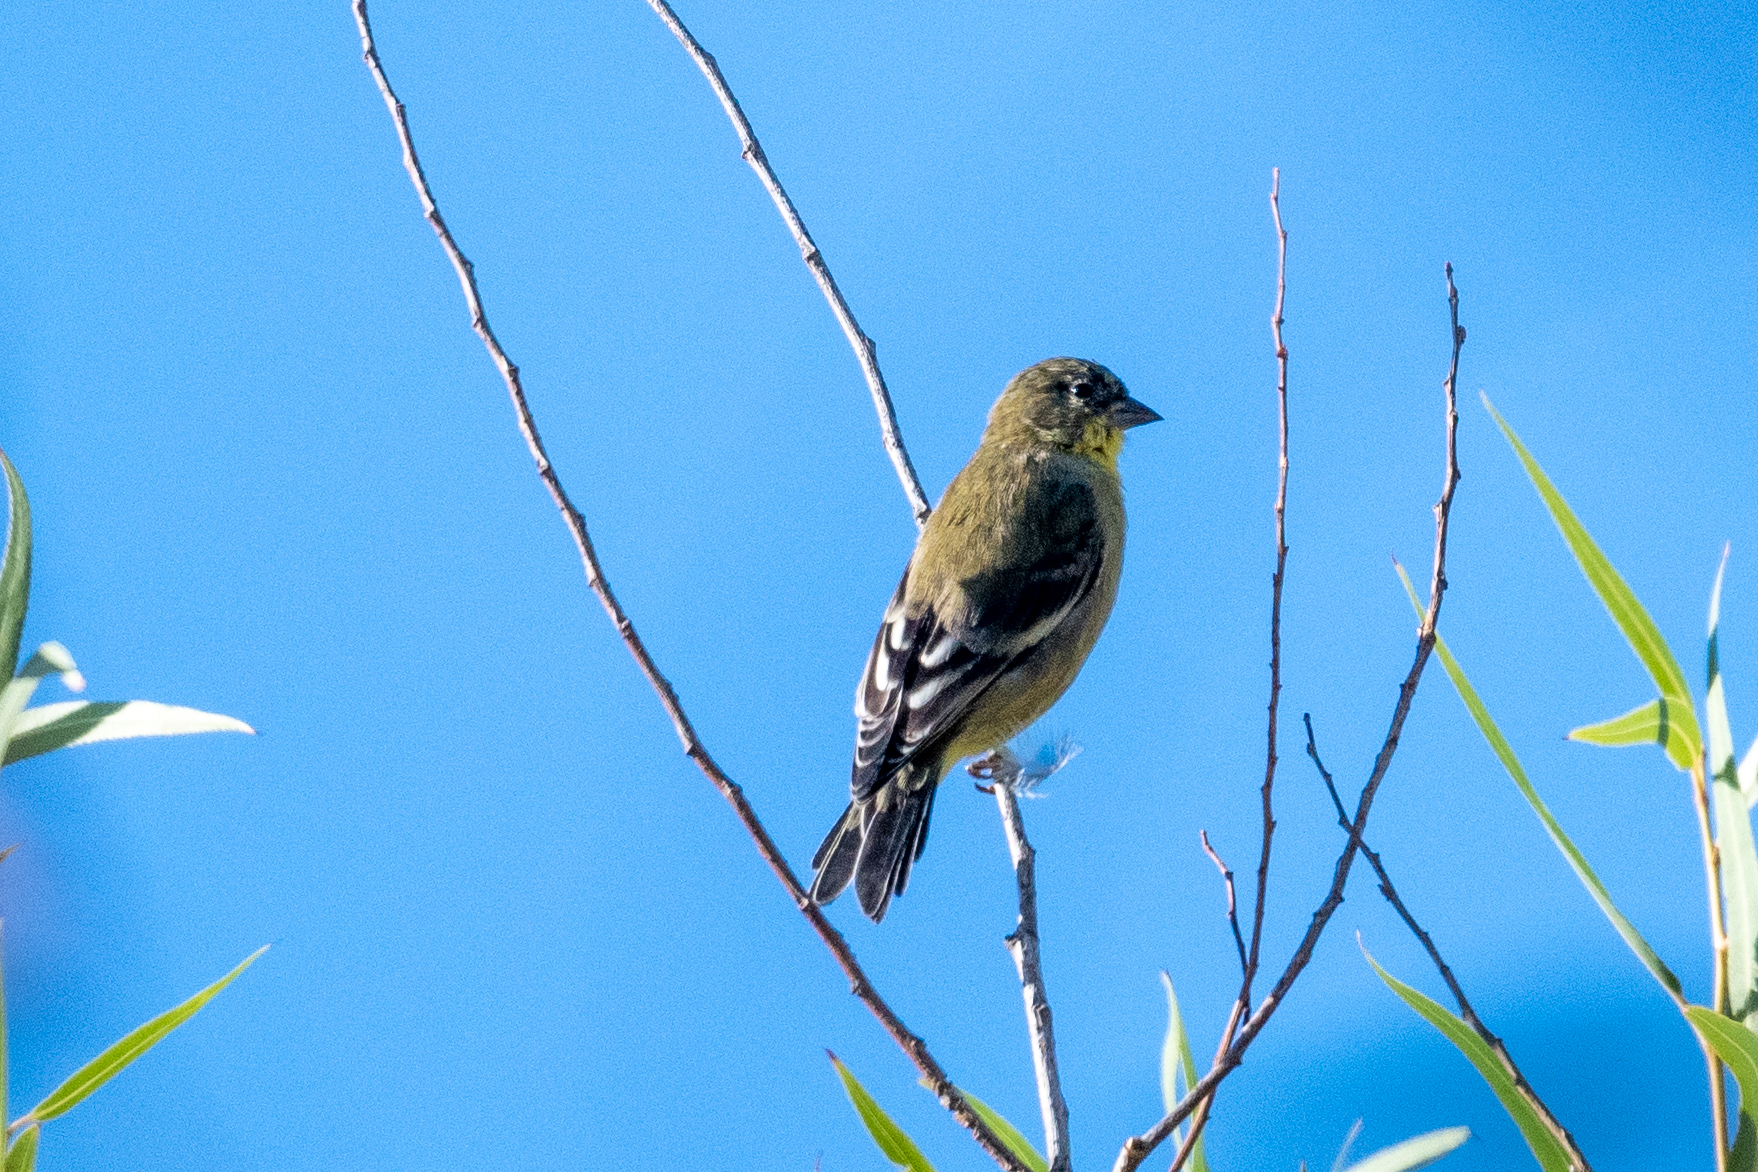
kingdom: Animalia
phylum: Chordata
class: Aves
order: Passeriformes
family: Fringillidae
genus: Spinus
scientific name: Spinus psaltria
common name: Lesser goldfinch
